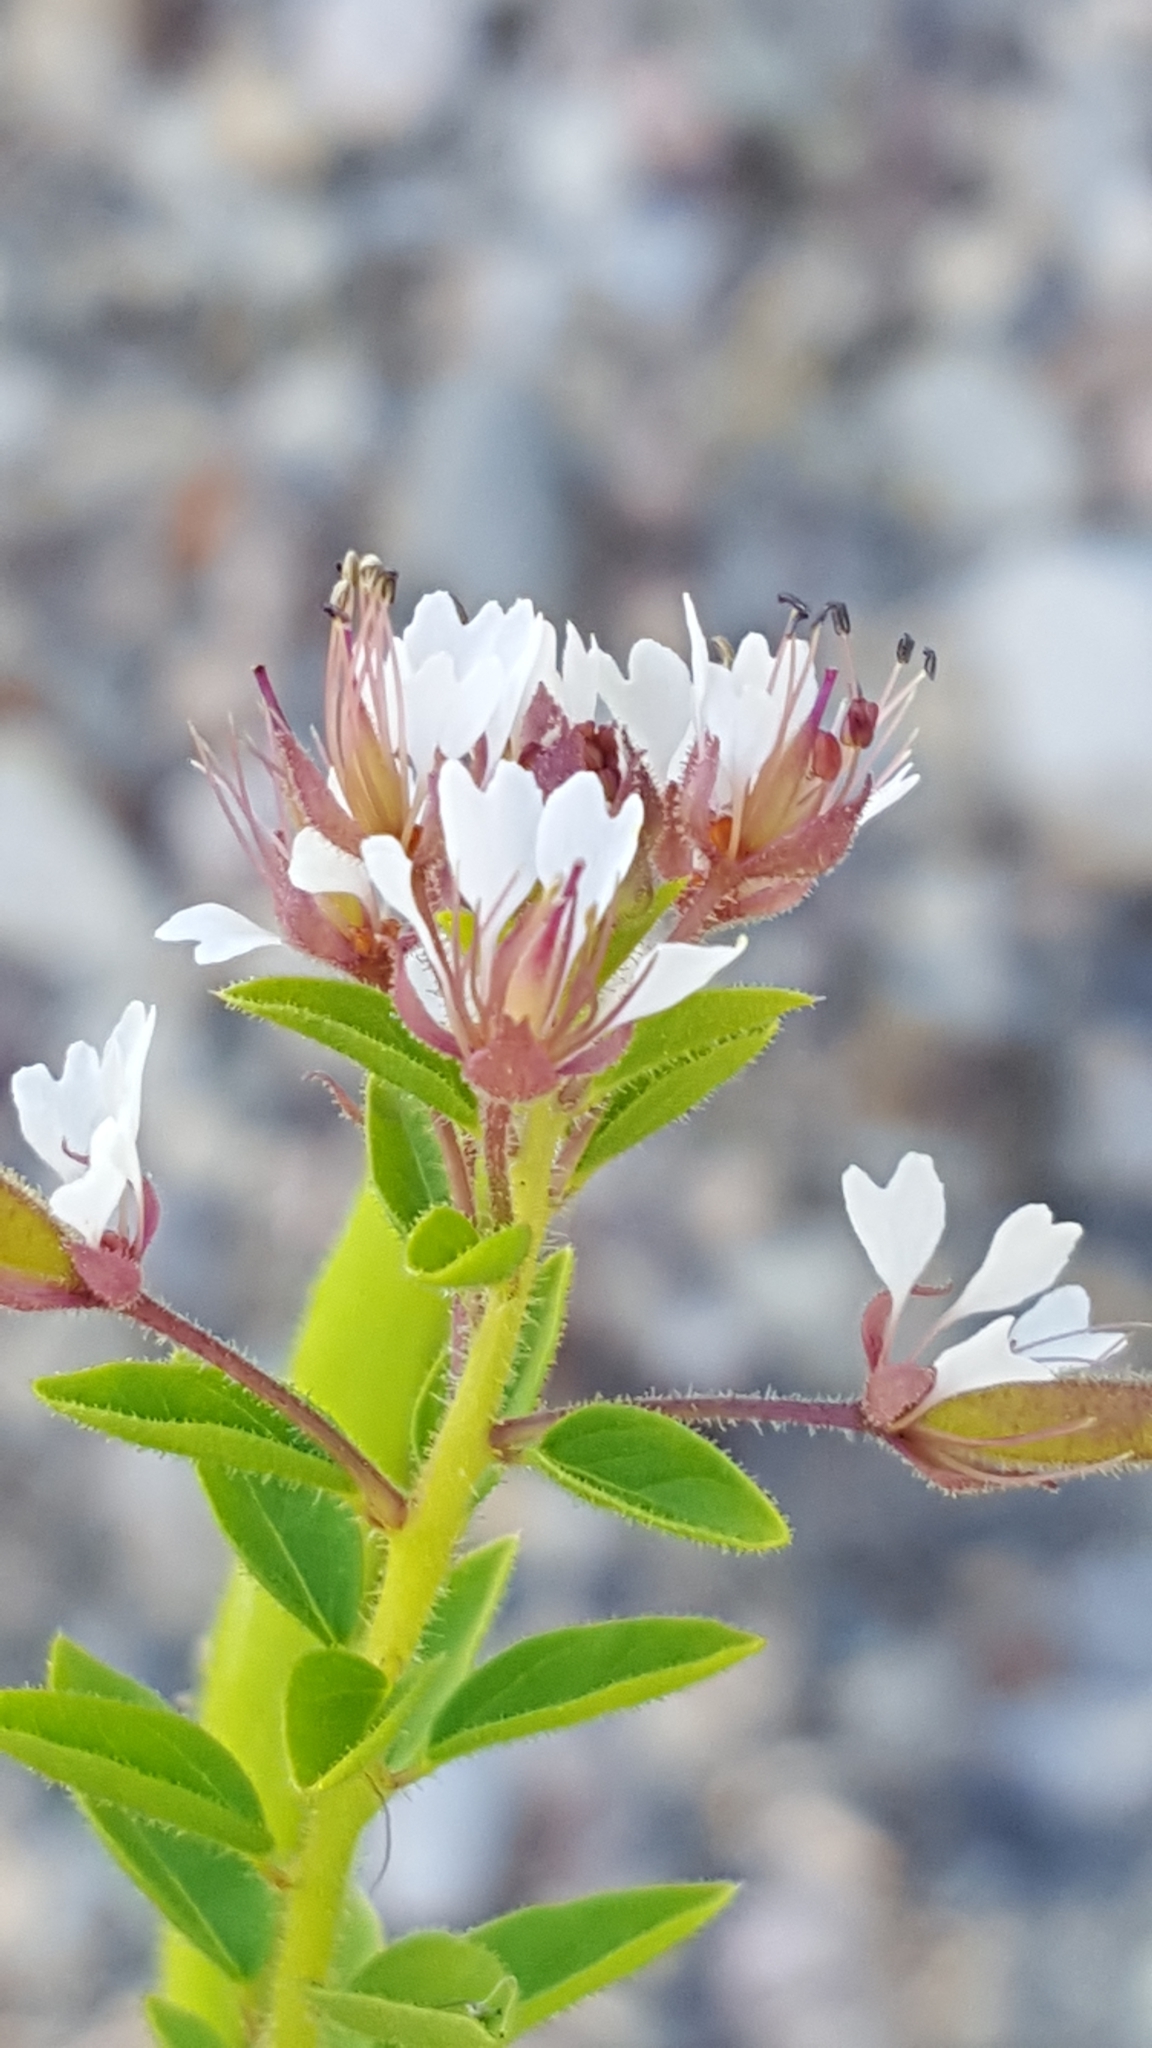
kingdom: Plantae
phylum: Tracheophyta
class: Magnoliopsida
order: Brassicales
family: Cleomaceae
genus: Polanisia
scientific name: Polanisia dodecandra
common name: Clammyweed
